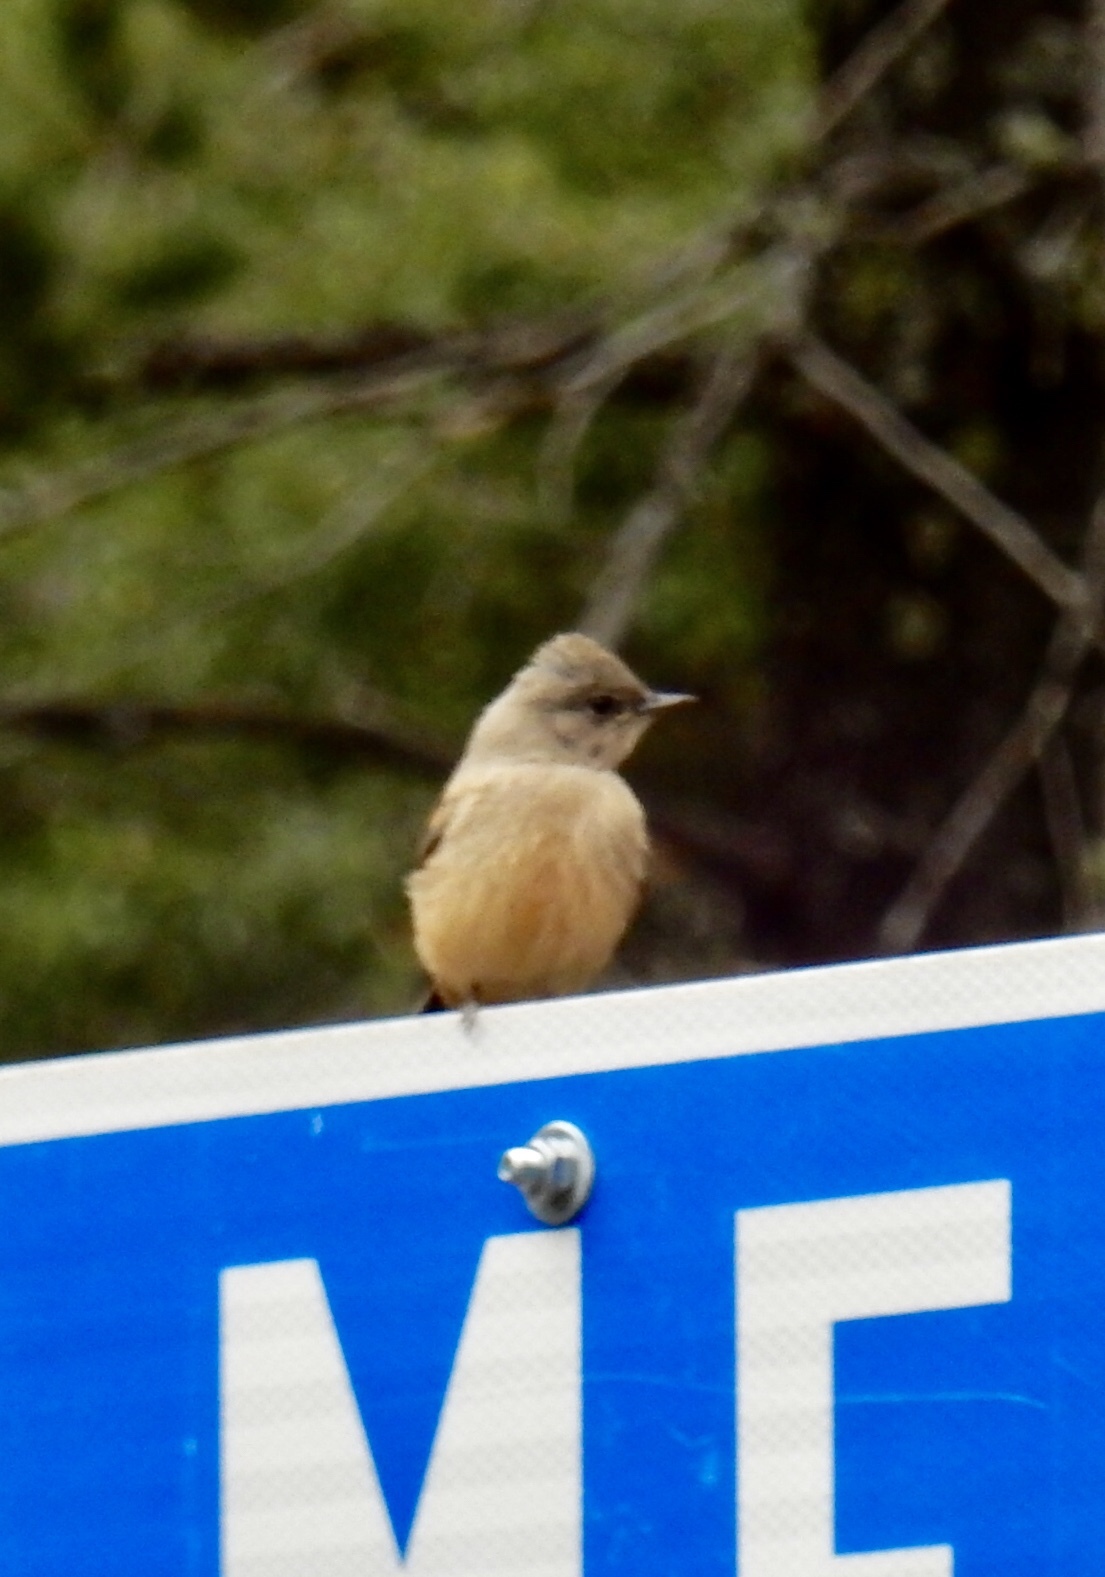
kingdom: Animalia
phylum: Chordata
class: Aves
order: Passeriformes
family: Tyrannidae
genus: Sayornis
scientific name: Sayornis saya
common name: Say's phoebe
